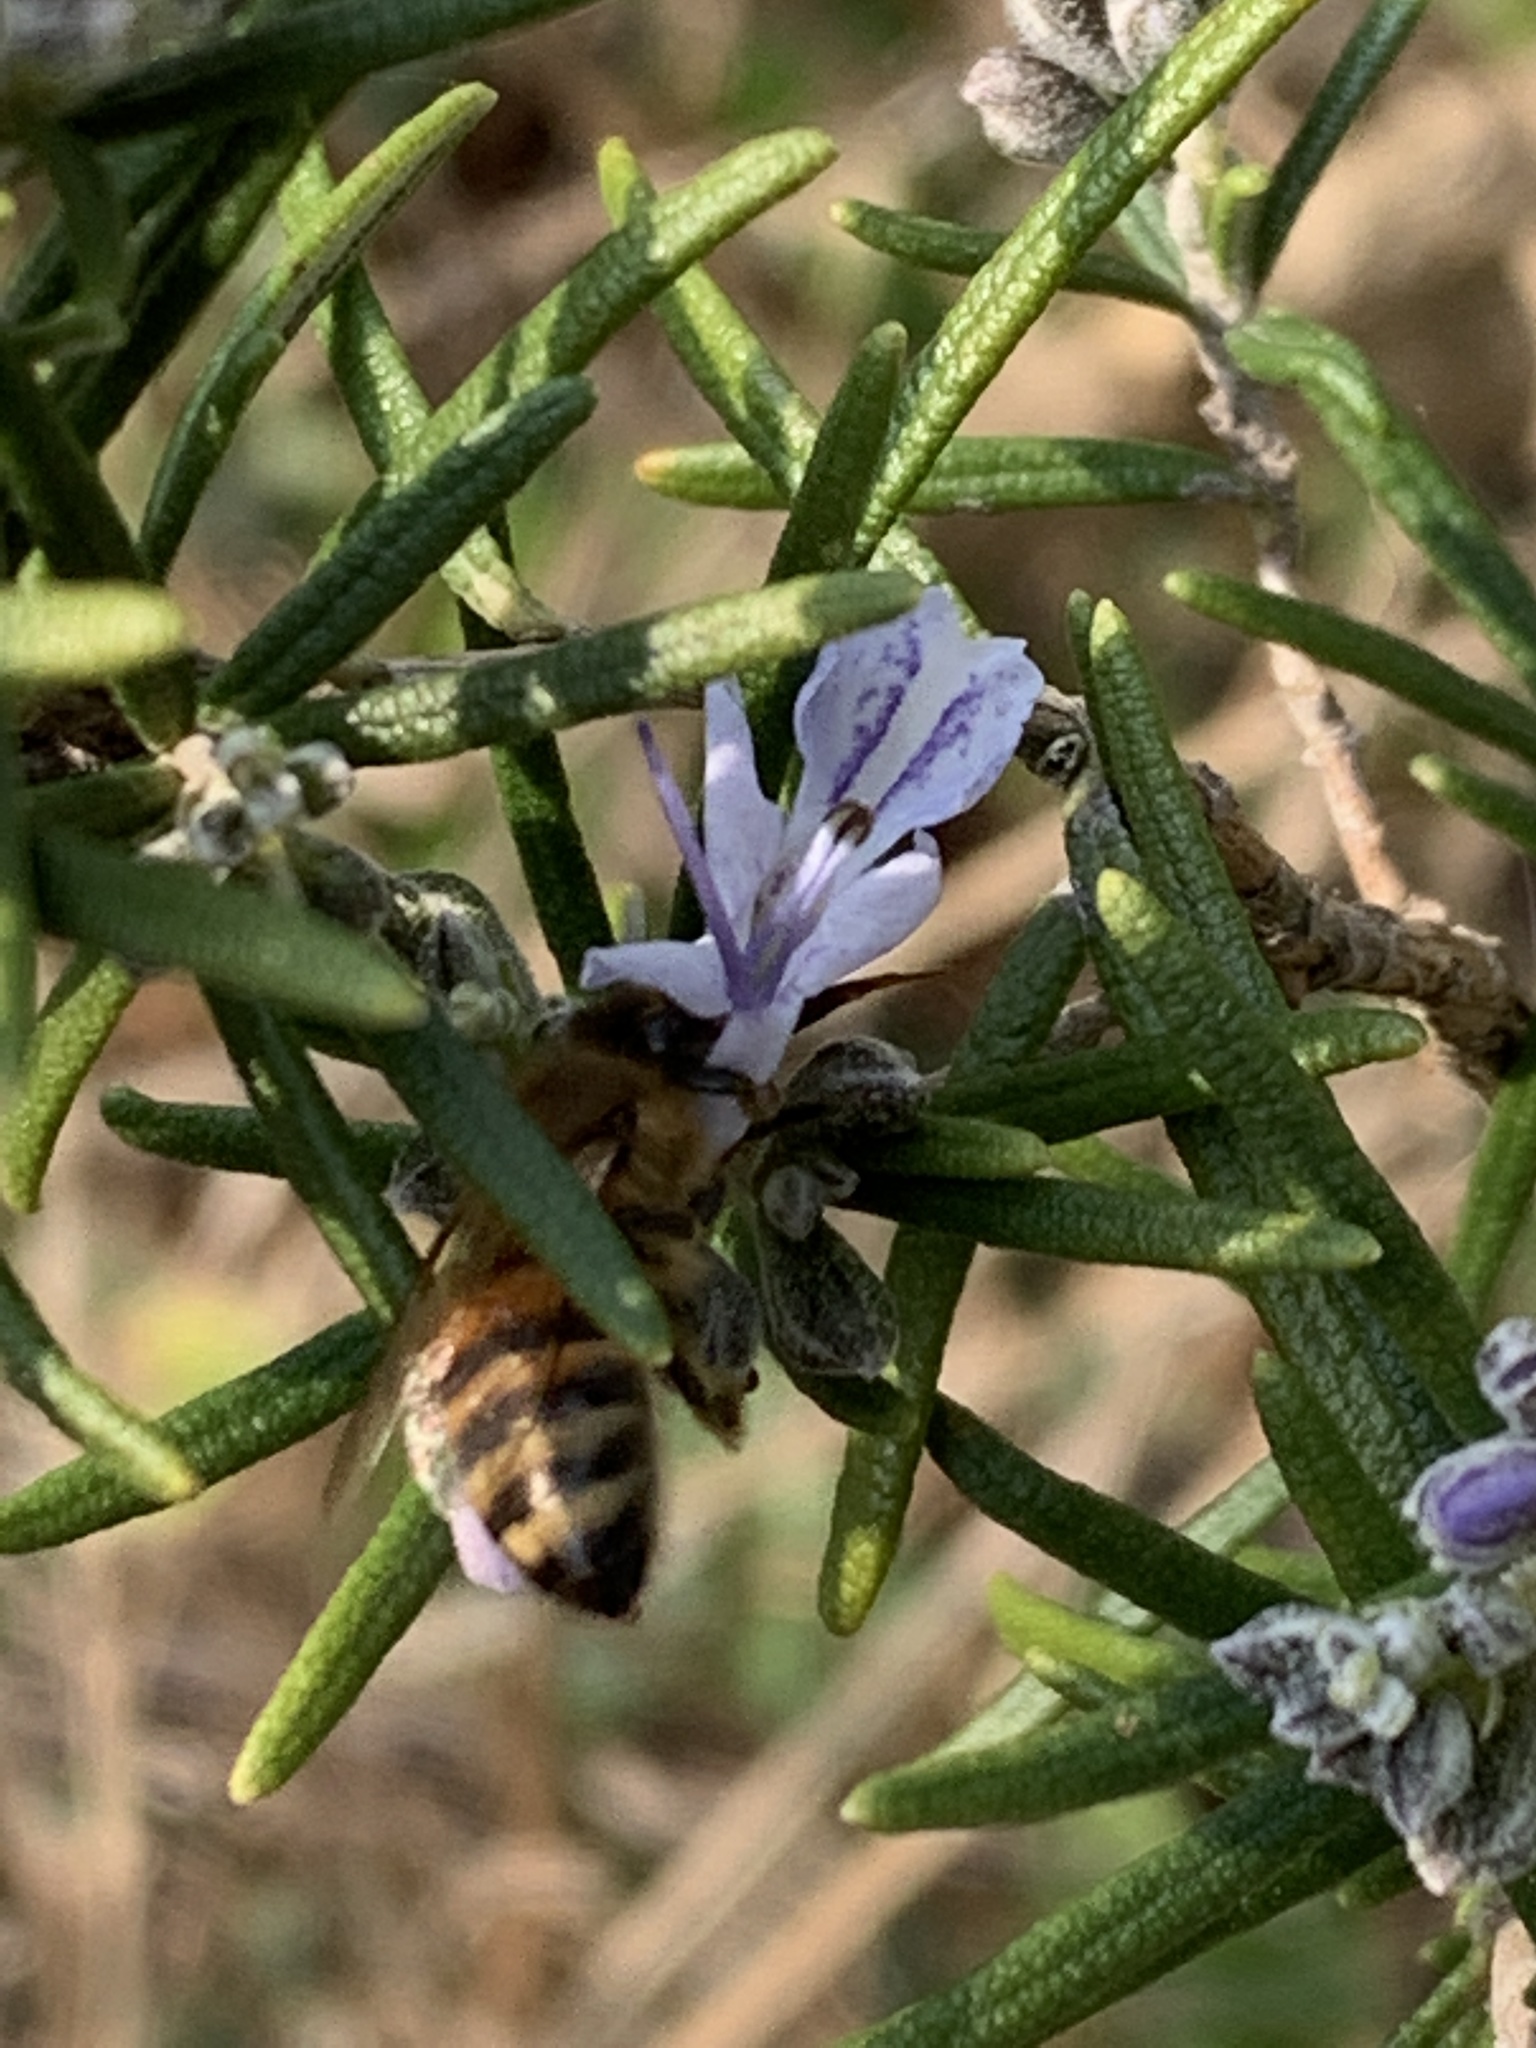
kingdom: Animalia
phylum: Arthropoda
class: Insecta
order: Hymenoptera
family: Apidae
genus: Apis
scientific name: Apis mellifera
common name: Honey bee
